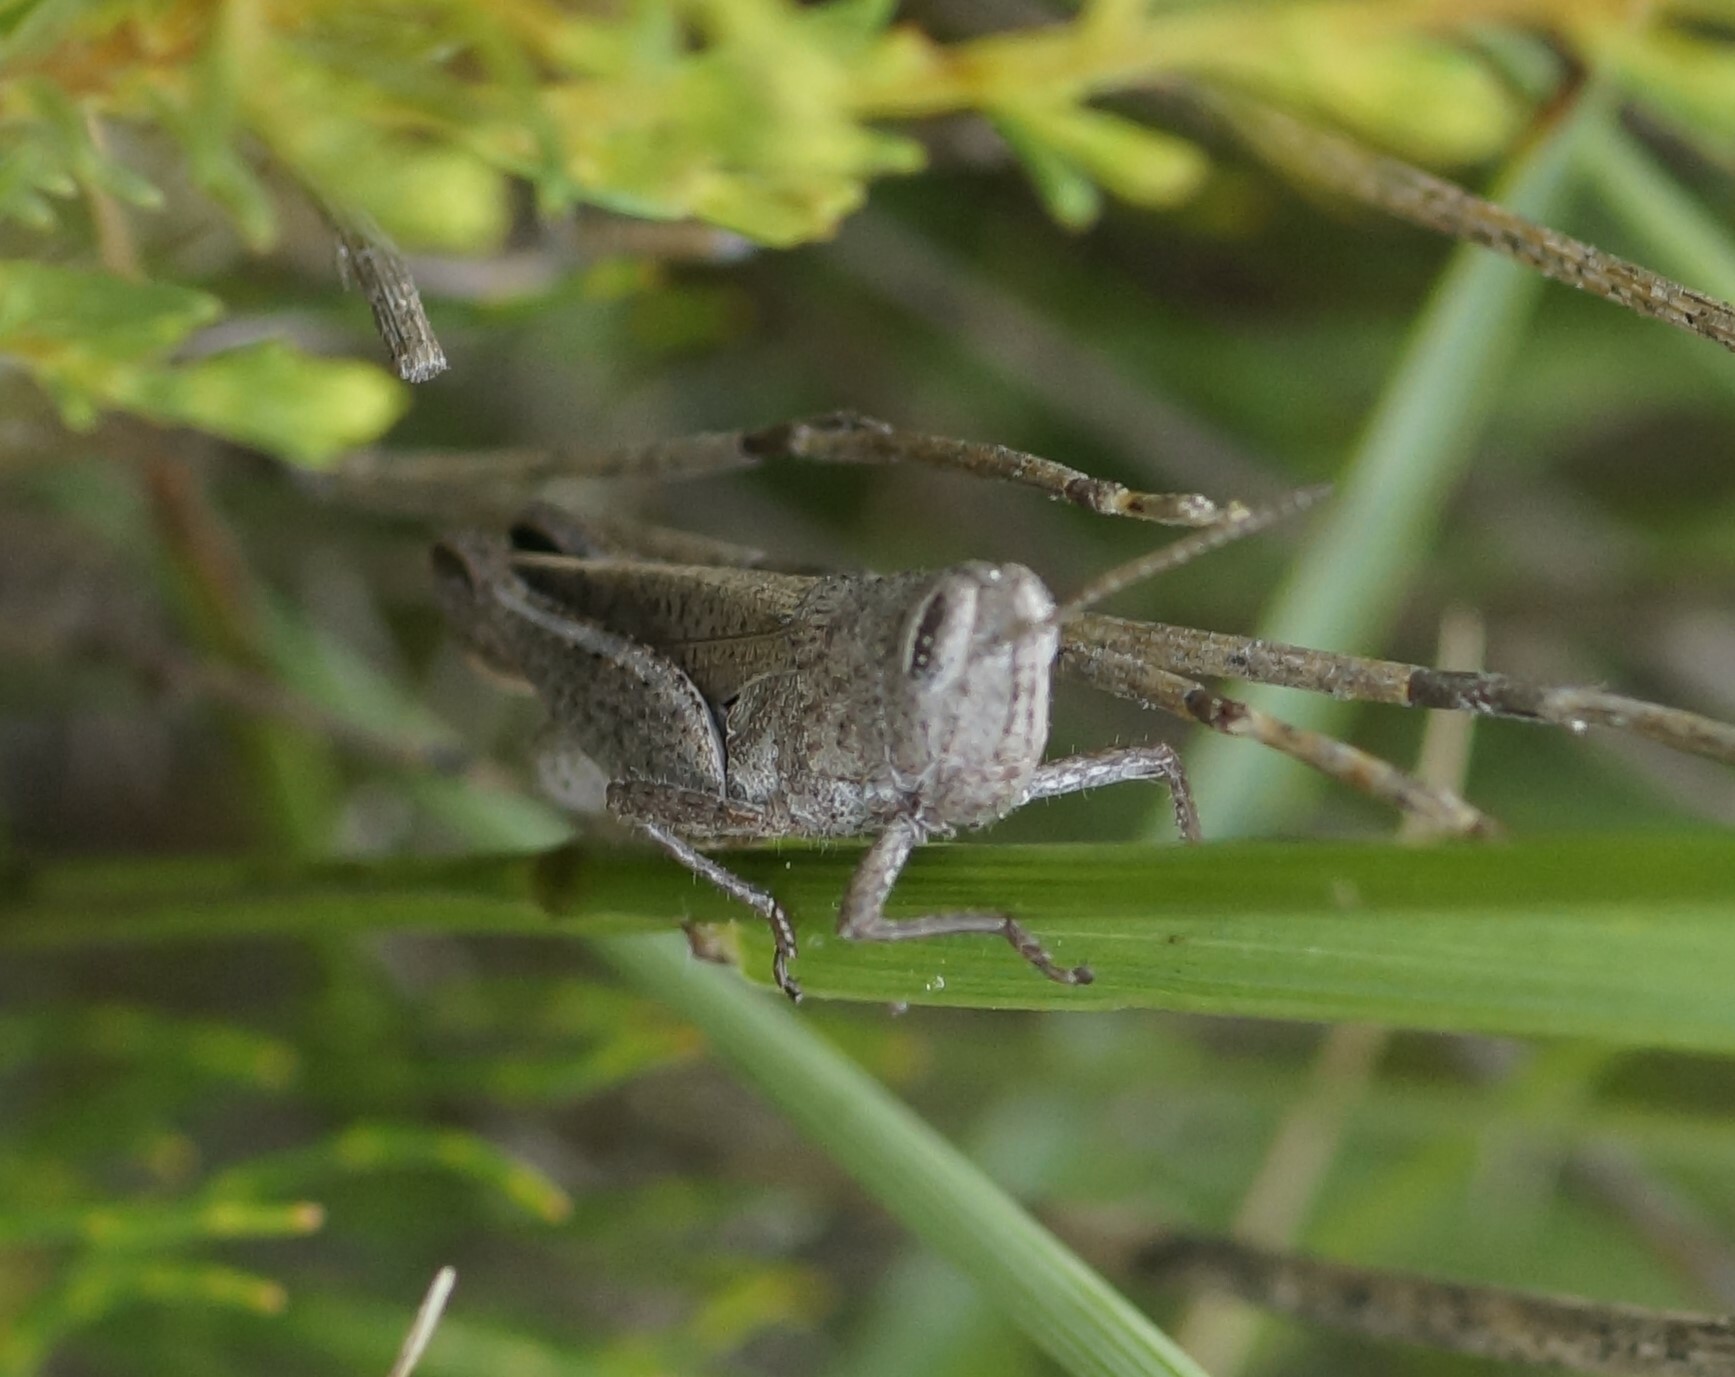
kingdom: Animalia
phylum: Arthropoda
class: Insecta
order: Orthoptera
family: Acrididae
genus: Peakesia
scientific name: Peakesia brunnea
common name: Grey peakesia
